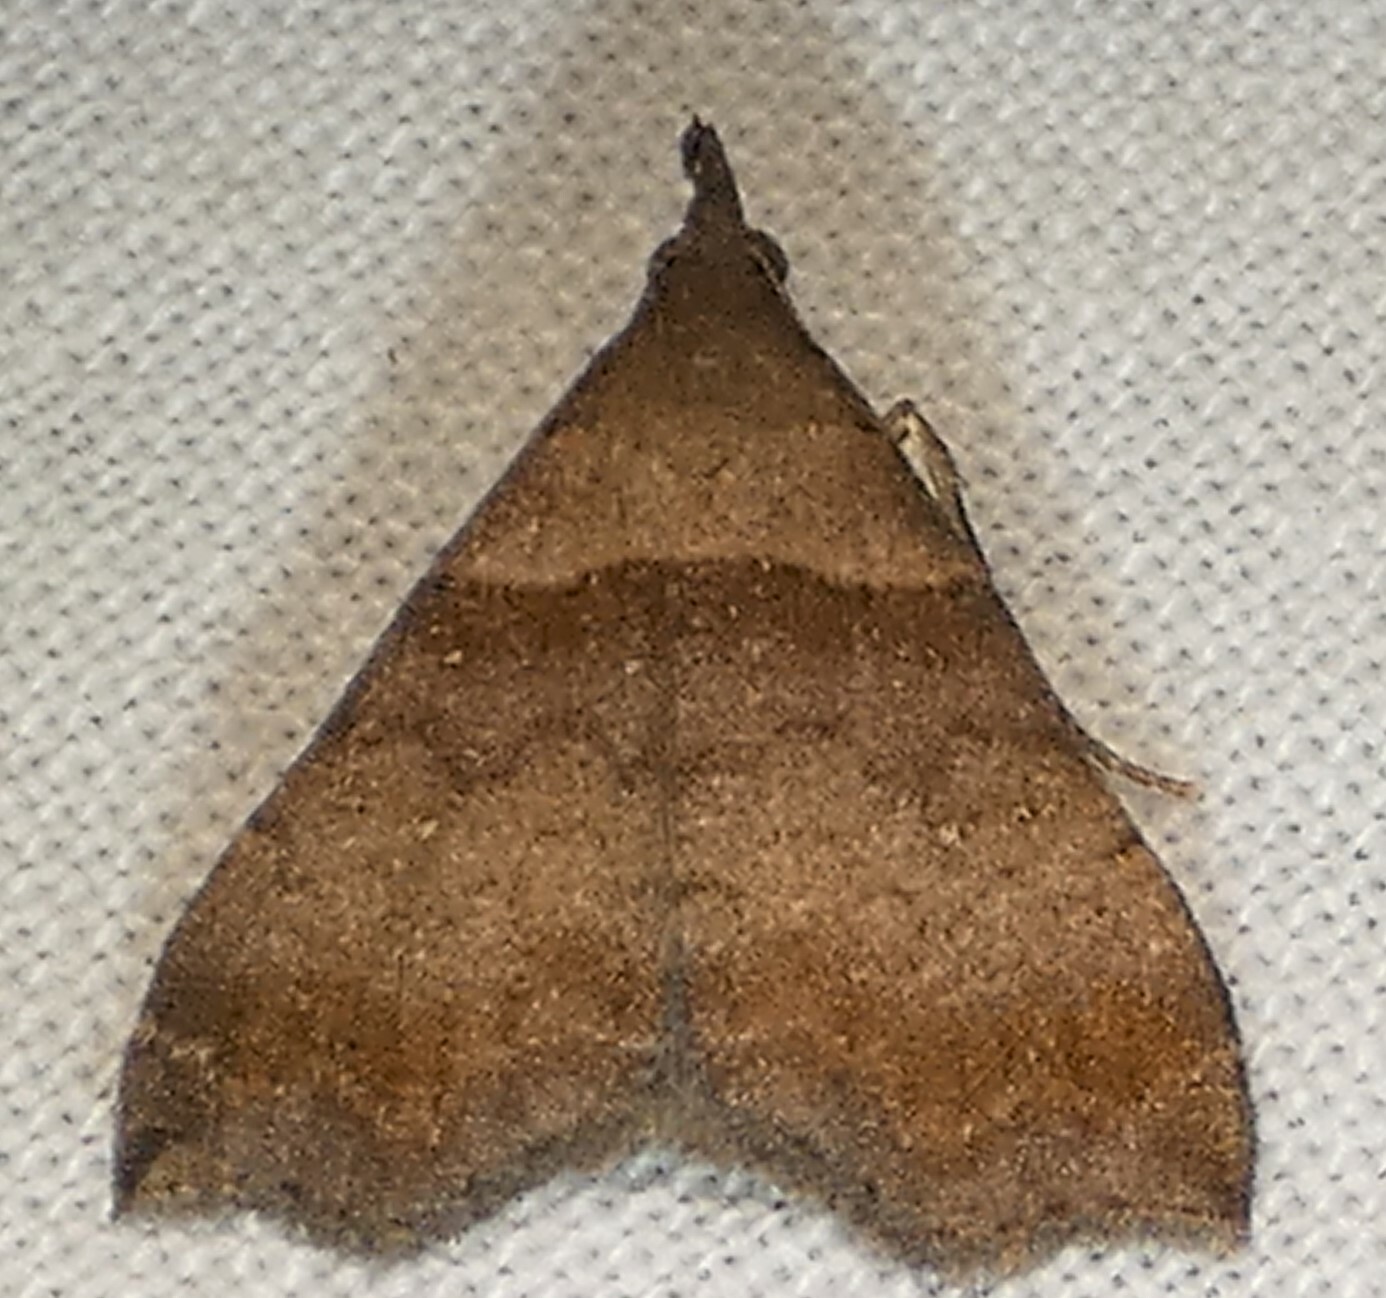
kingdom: Animalia
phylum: Arthropoda
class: Insecta
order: Lepidoptera
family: Erebidae
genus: Lascoria
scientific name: Lascoria ambigualis
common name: Ambiguous moth
